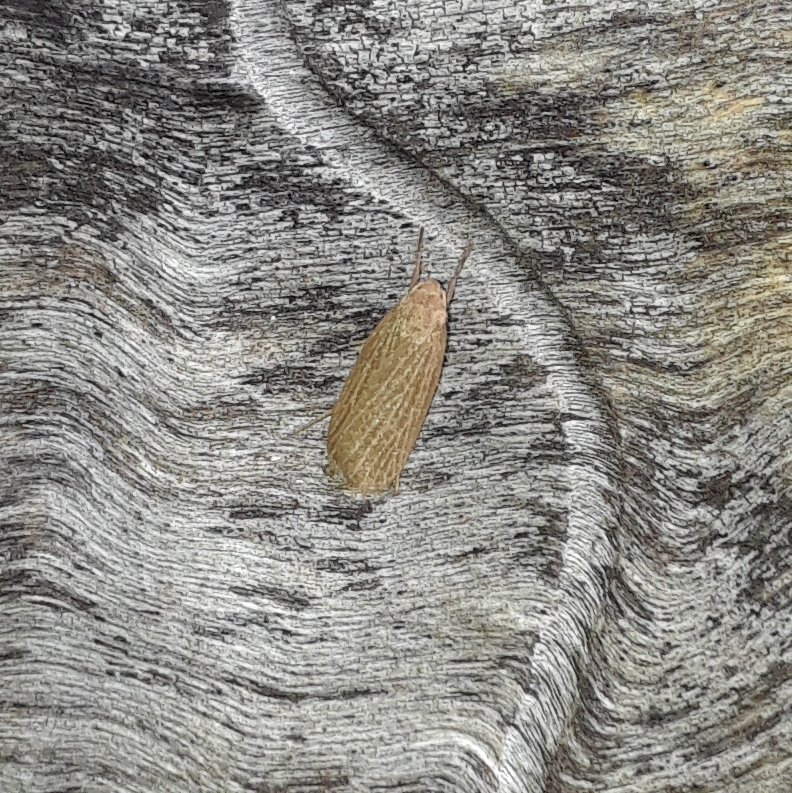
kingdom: Animalia
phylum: Arthropoda
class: Insecta
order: Lepidoptera
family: Erebidae
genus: Crambidia
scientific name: Crambidia pallida
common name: Pale lichen moth
